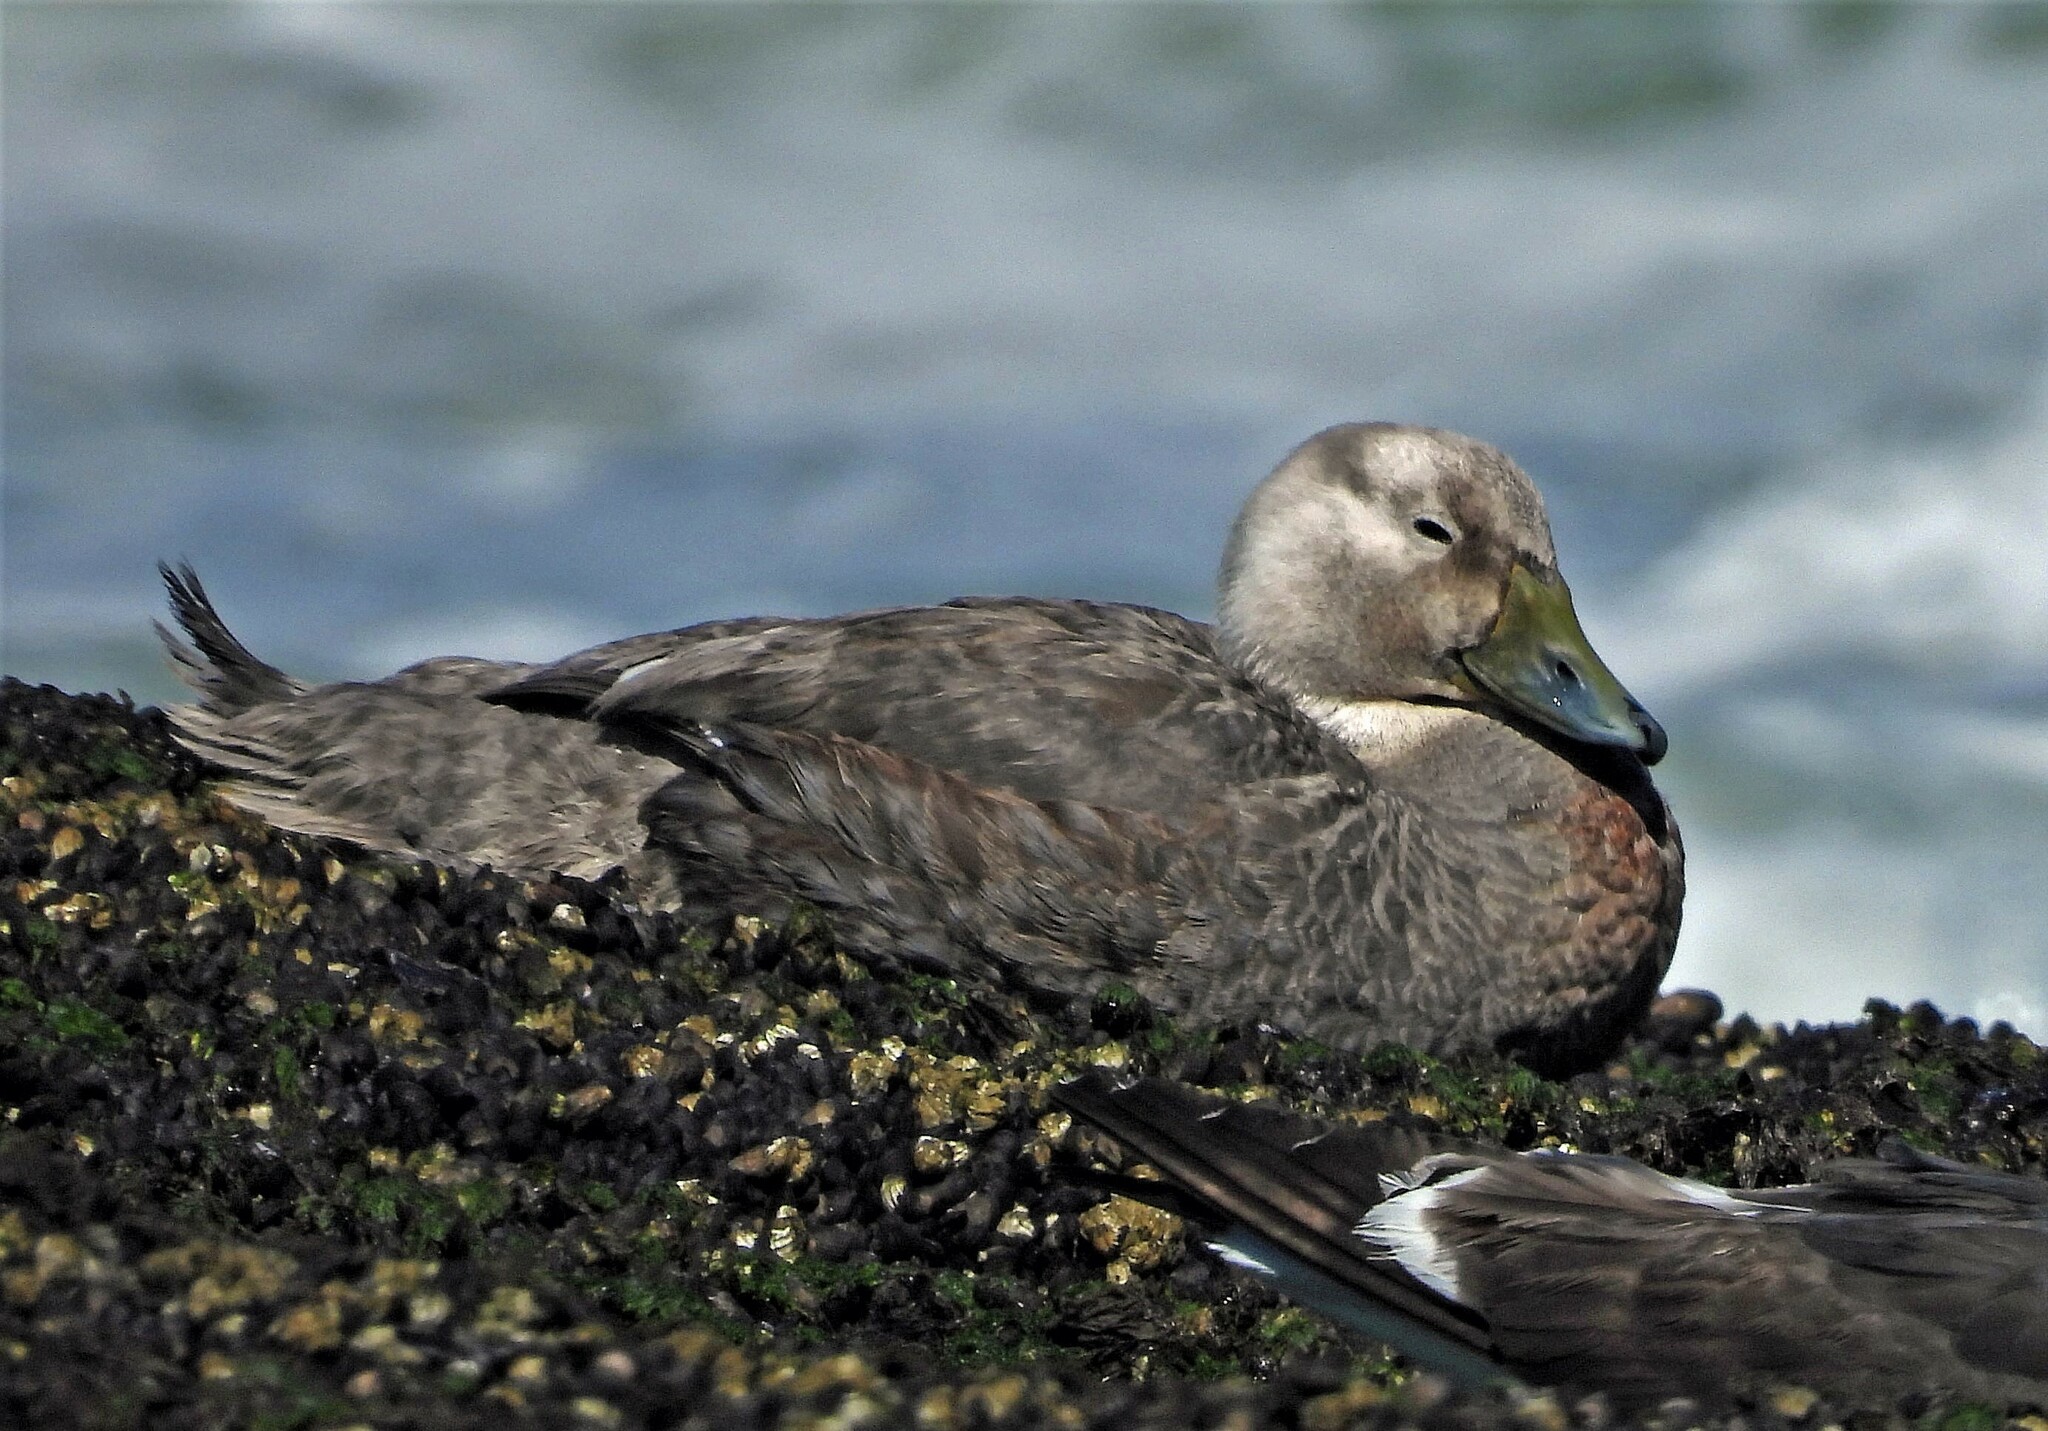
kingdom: Animalia
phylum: Chordata
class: Aves
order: Anseriformes
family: Anatidae
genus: Tachyeres
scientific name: Tachyeres leucocephalus
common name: Chubut steamer duck
